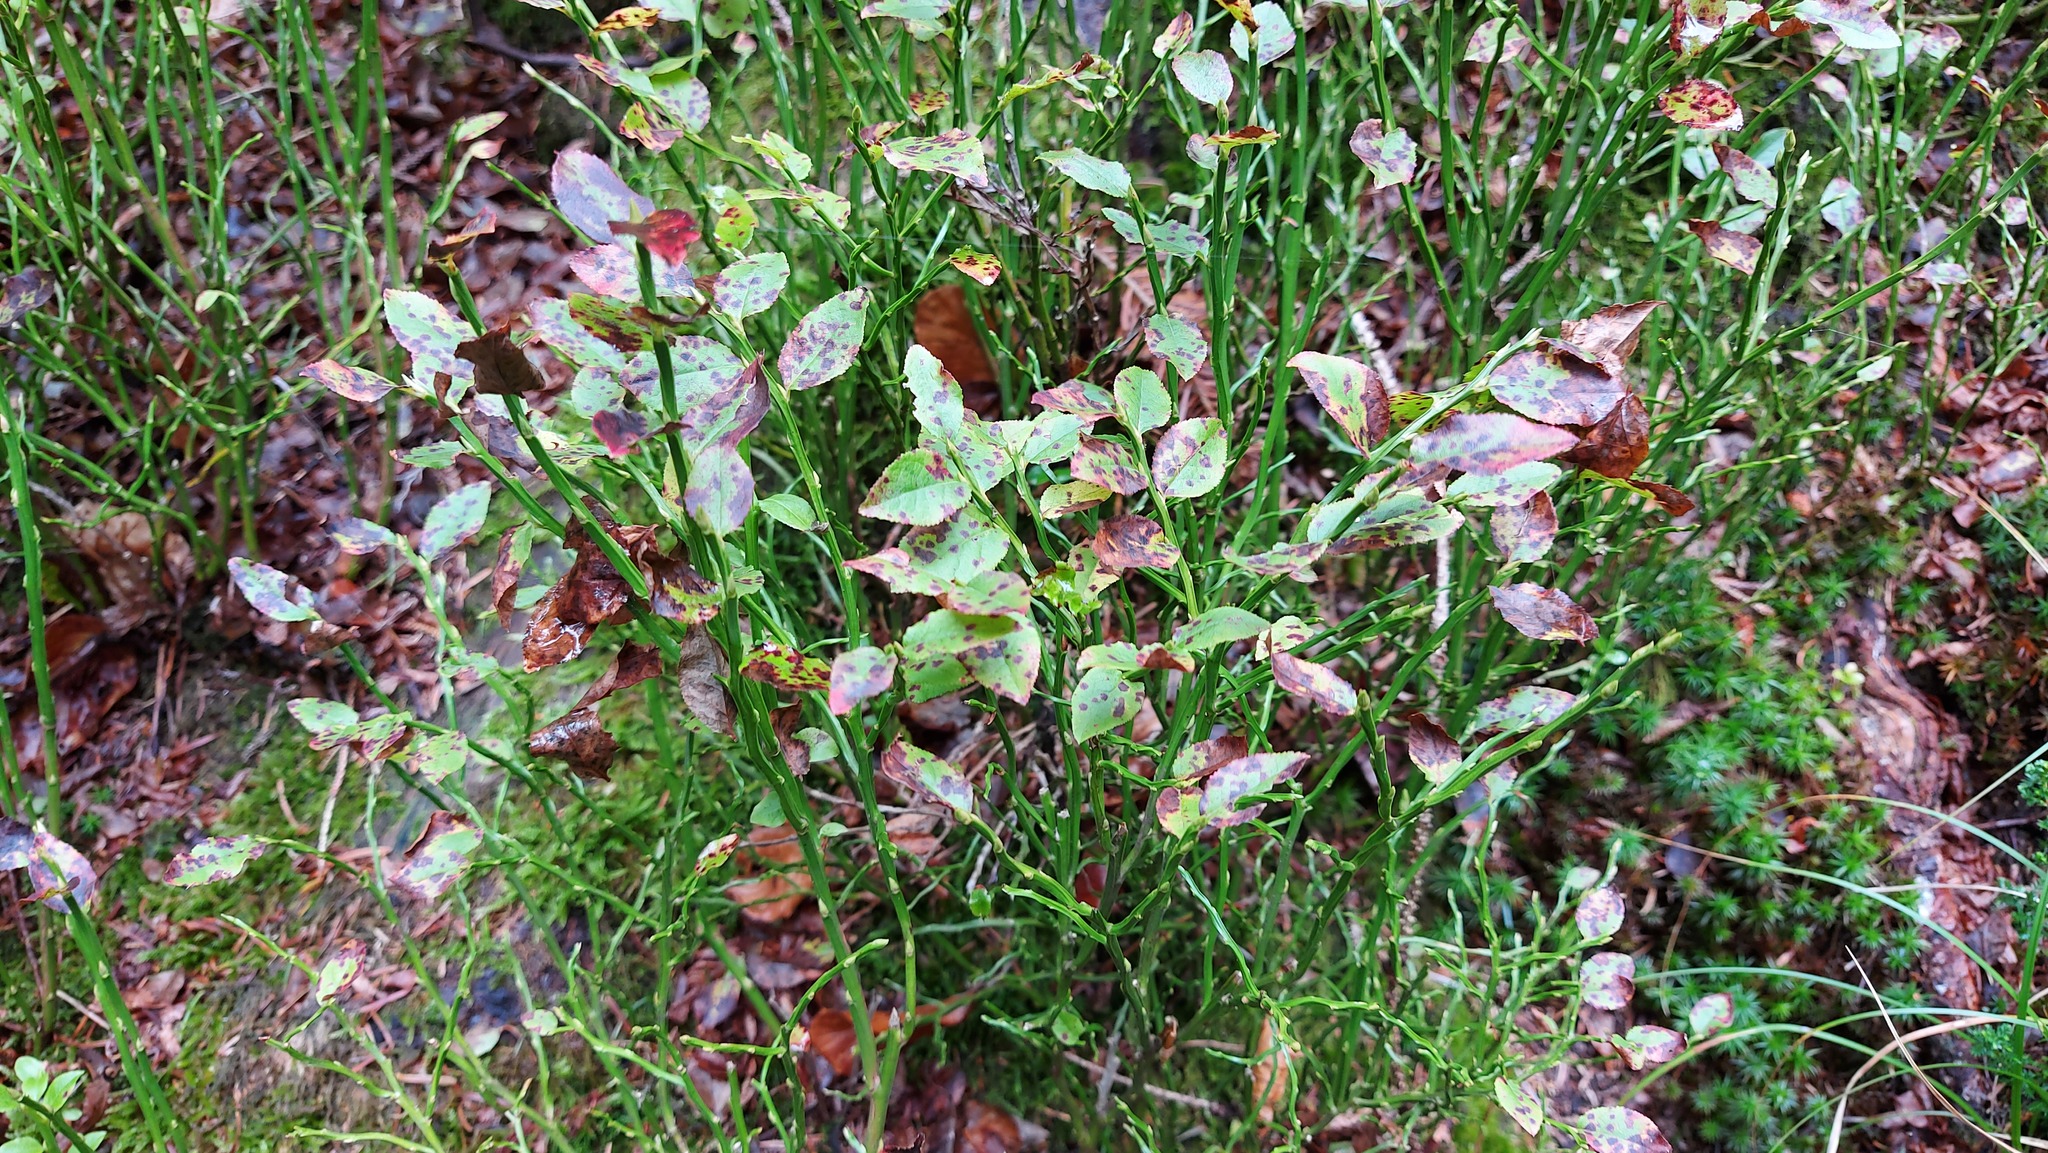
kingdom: Plantae
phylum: Tracheophyta
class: Magnoliopsida
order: Ericales
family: Ericaceae
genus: Vaccinium
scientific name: Vaccinium myrtillus
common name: Bilberry
